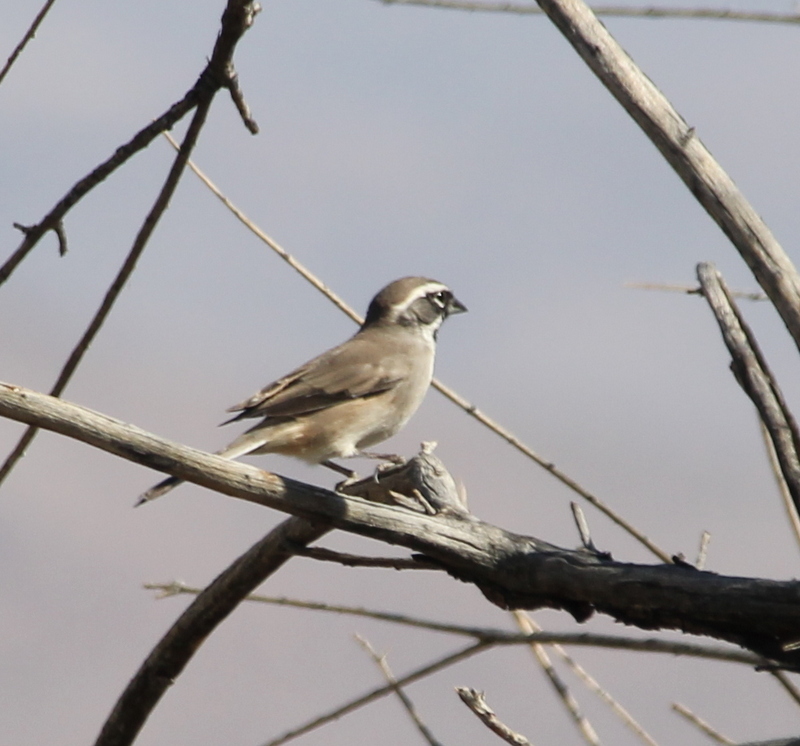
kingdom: Animalia
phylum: Chordata
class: Aves
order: Passeriformes
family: Passerellidae
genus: Amphispiza
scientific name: Amphispiza bilineata
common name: Black-throated sparrow
